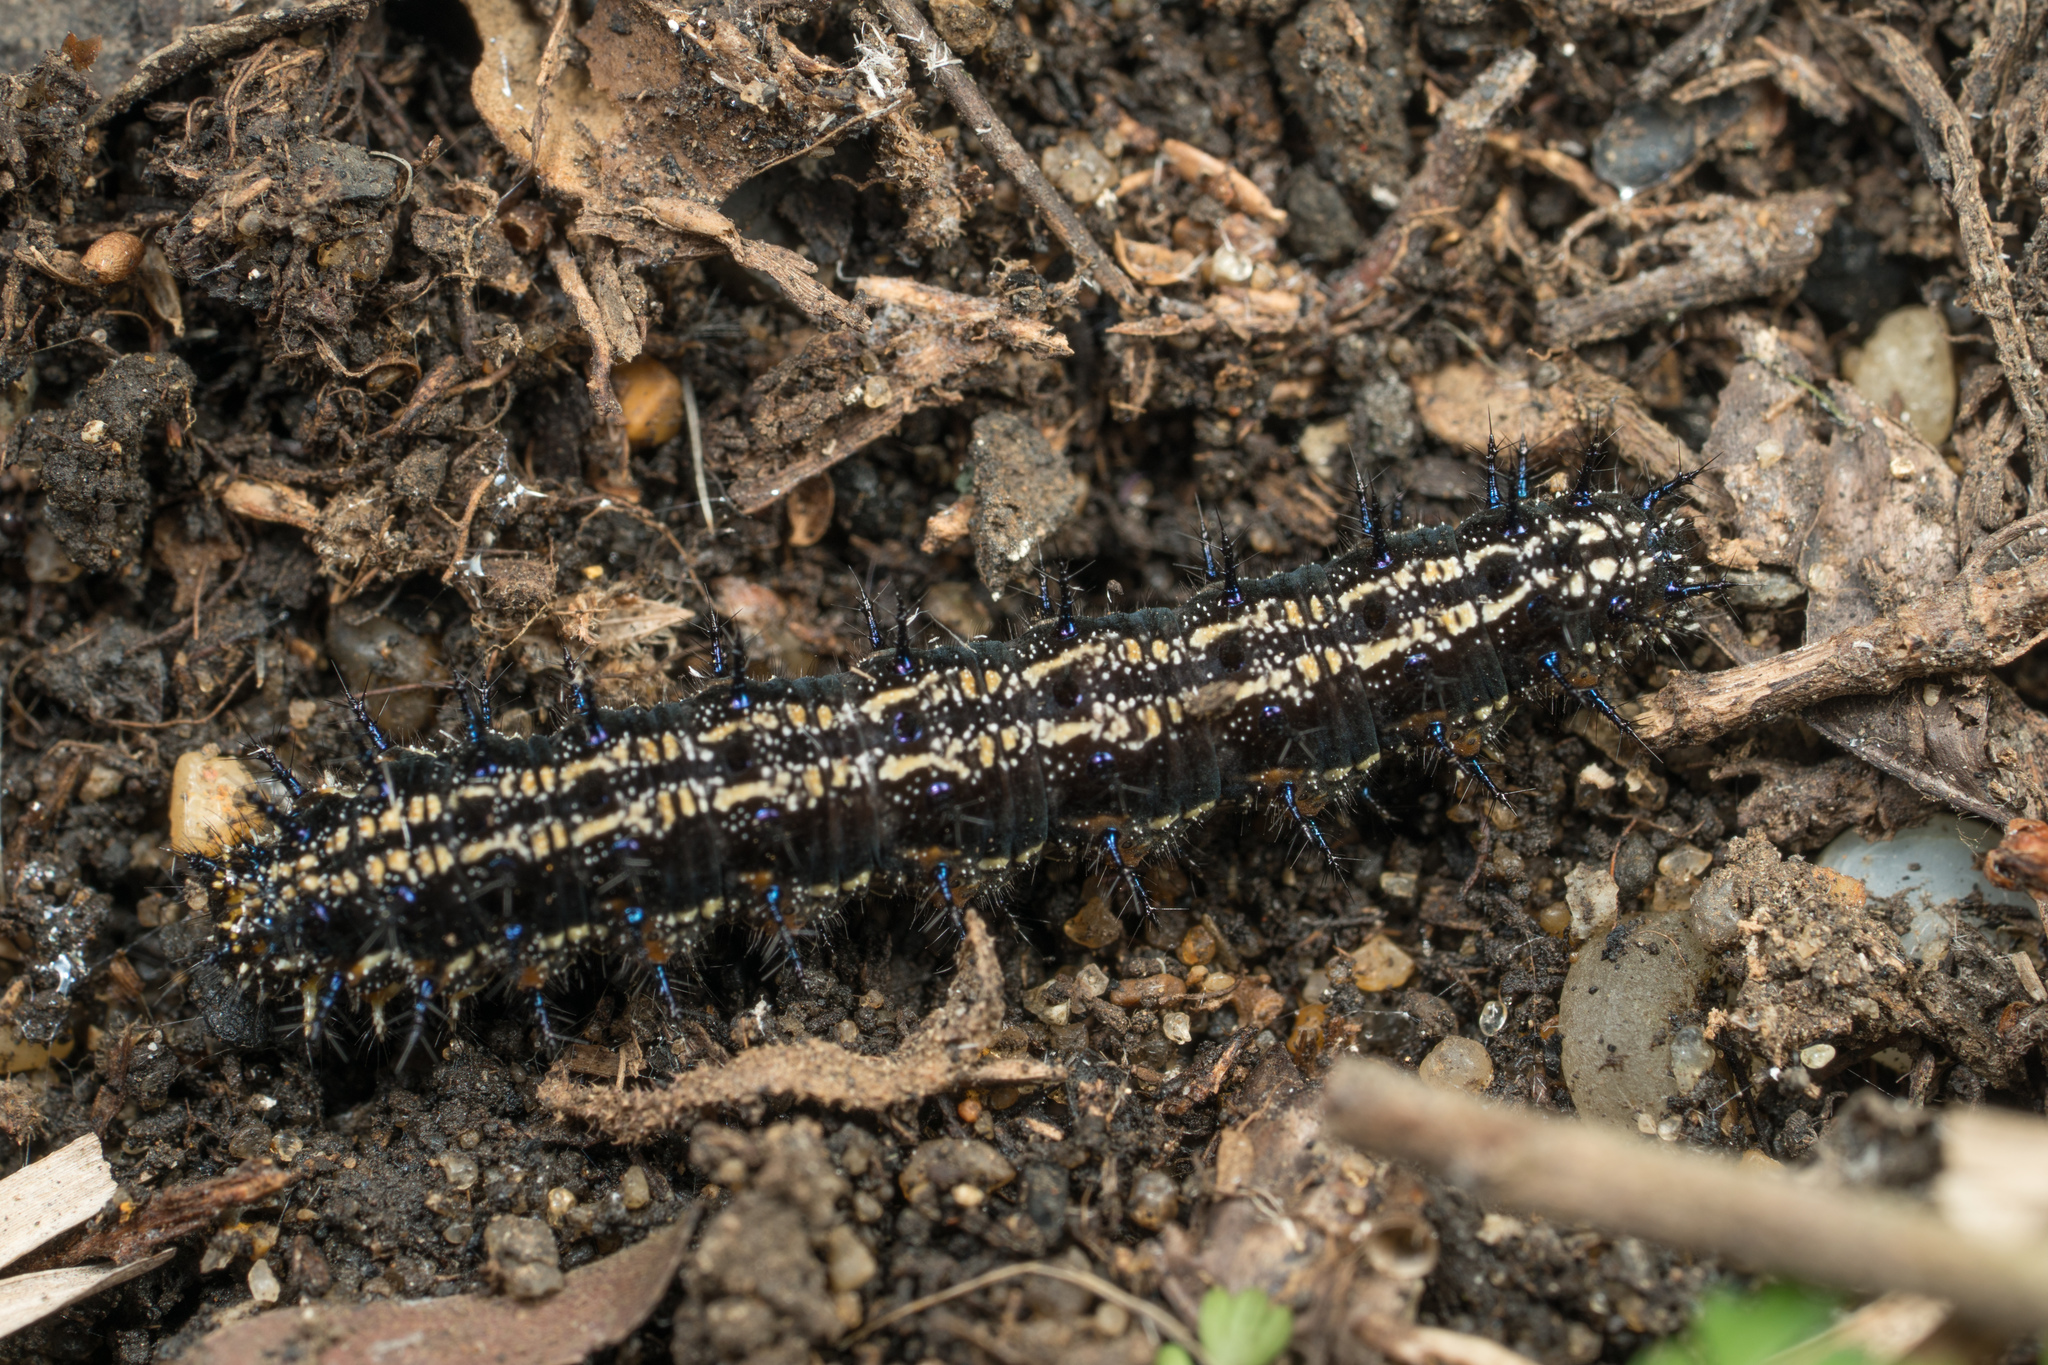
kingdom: Animalia
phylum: Arthropoda
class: Insecta
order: Lepidoptera
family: Nymphalidae
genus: Junonia
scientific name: Junonia coenia
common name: Common buckeye
